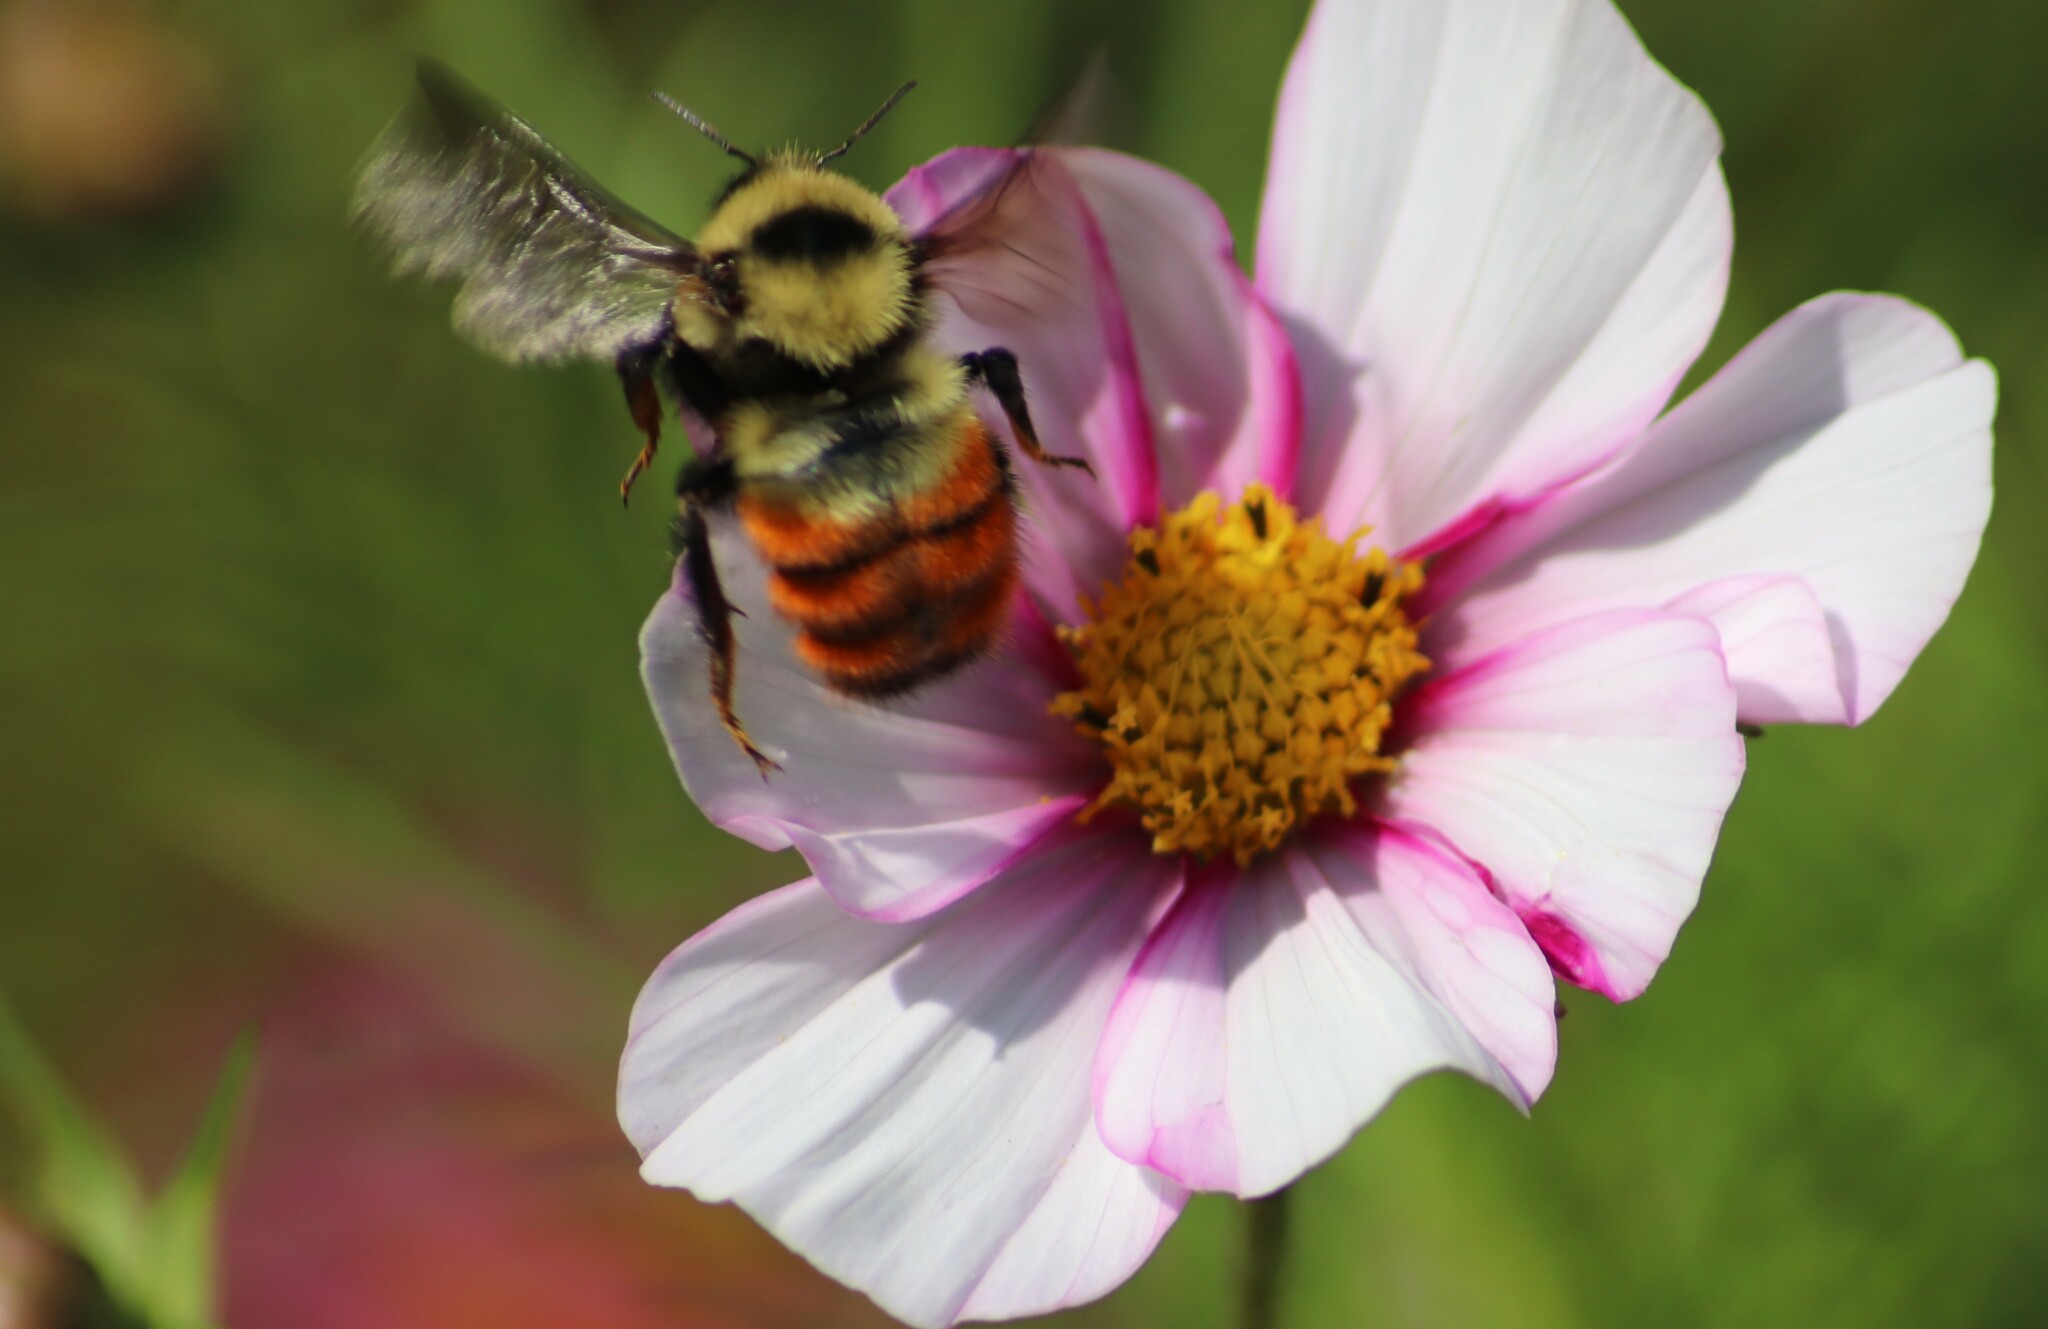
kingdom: Animalia
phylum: Arthropoda
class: Insecta
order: Hymenoptera
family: Apidae
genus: Bombus
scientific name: Bombus rufocinctus
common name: Red-belted bumble bee
